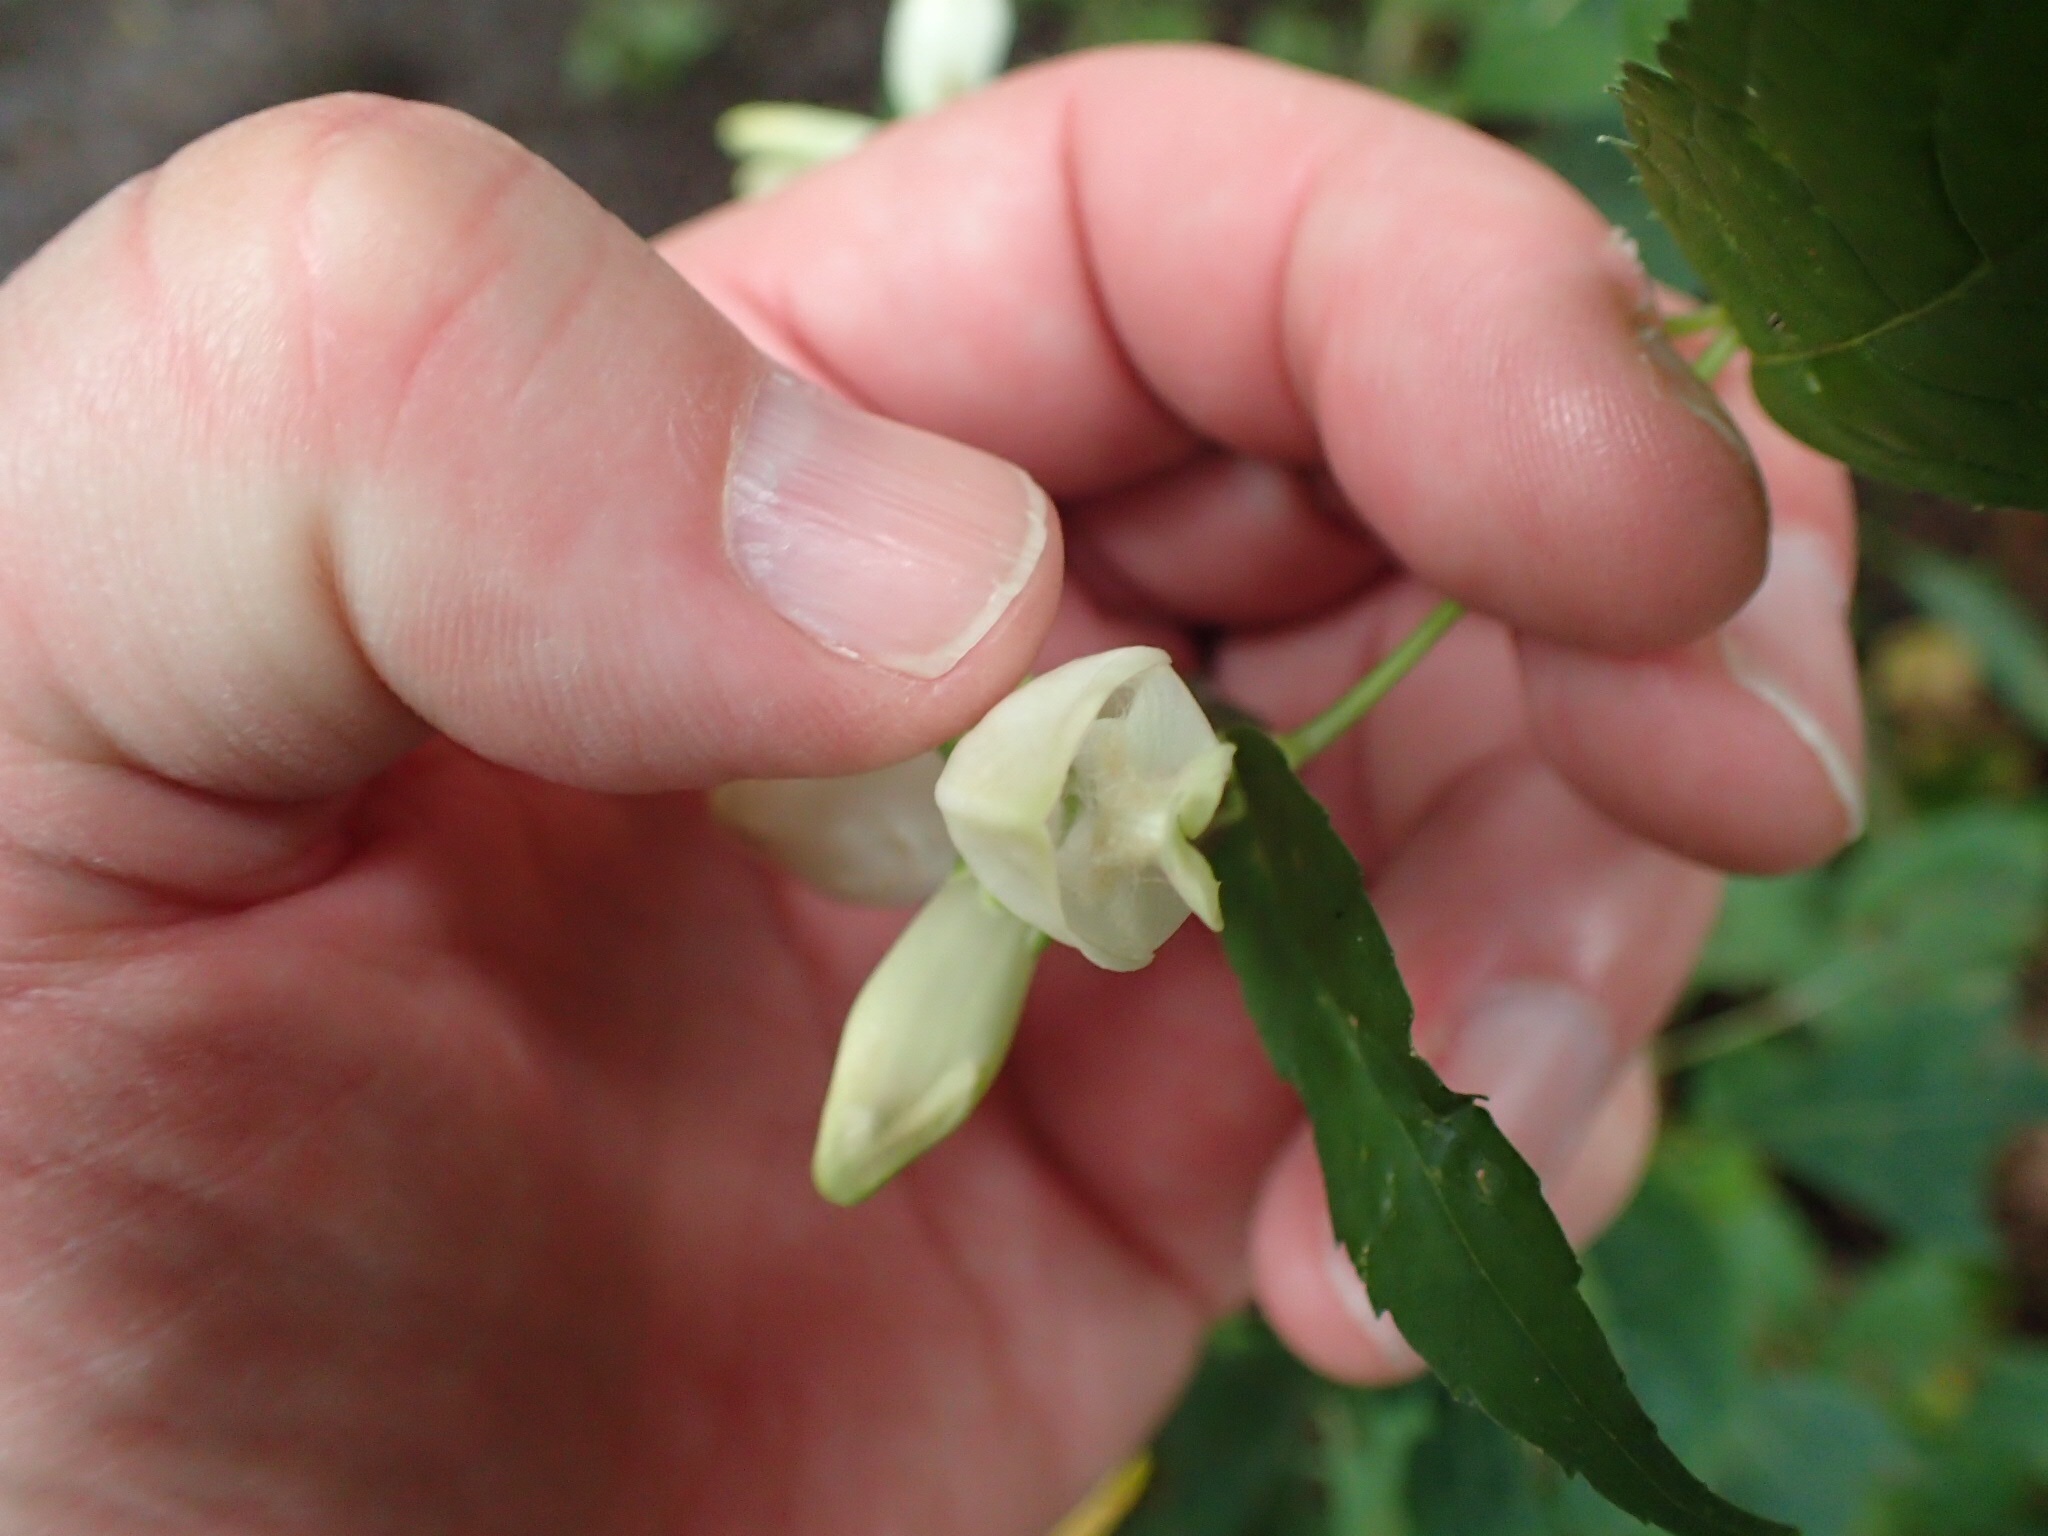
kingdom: Plantae
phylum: Tracheophyta
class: Magnoliopsida
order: Lamiales
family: Plantaginaceae
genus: Chelone
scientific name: Chelone glabra
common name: Snakehead
